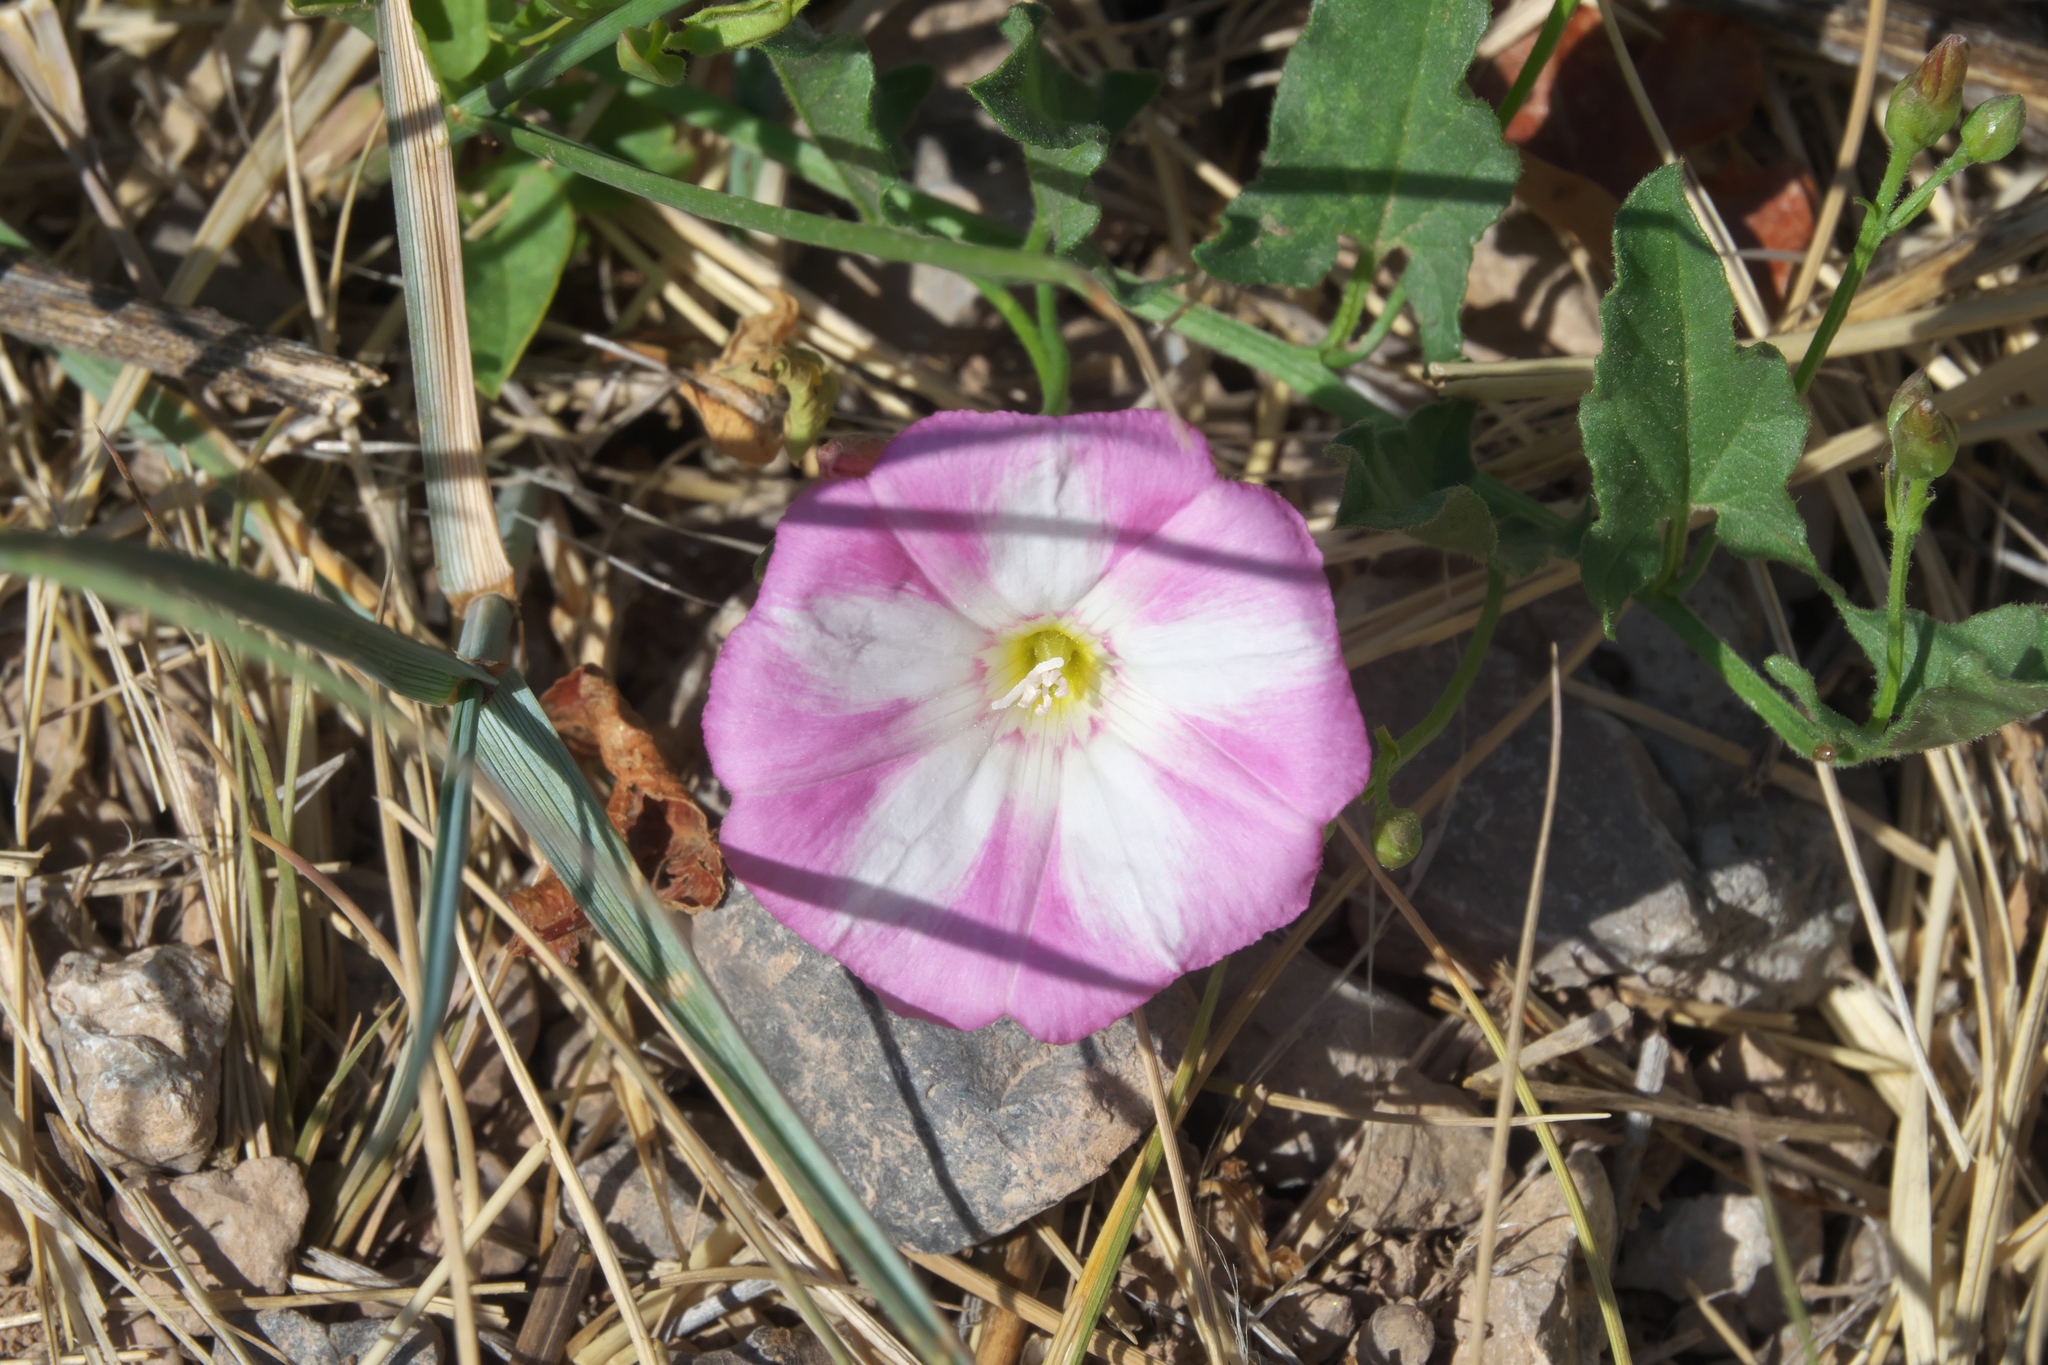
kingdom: Plantae
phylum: Tracheophyta
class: Magnoliopsida
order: Solanales
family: Convolvulaceae
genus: Convolvulus
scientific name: Convolvulus arvensis
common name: Field bindweed
